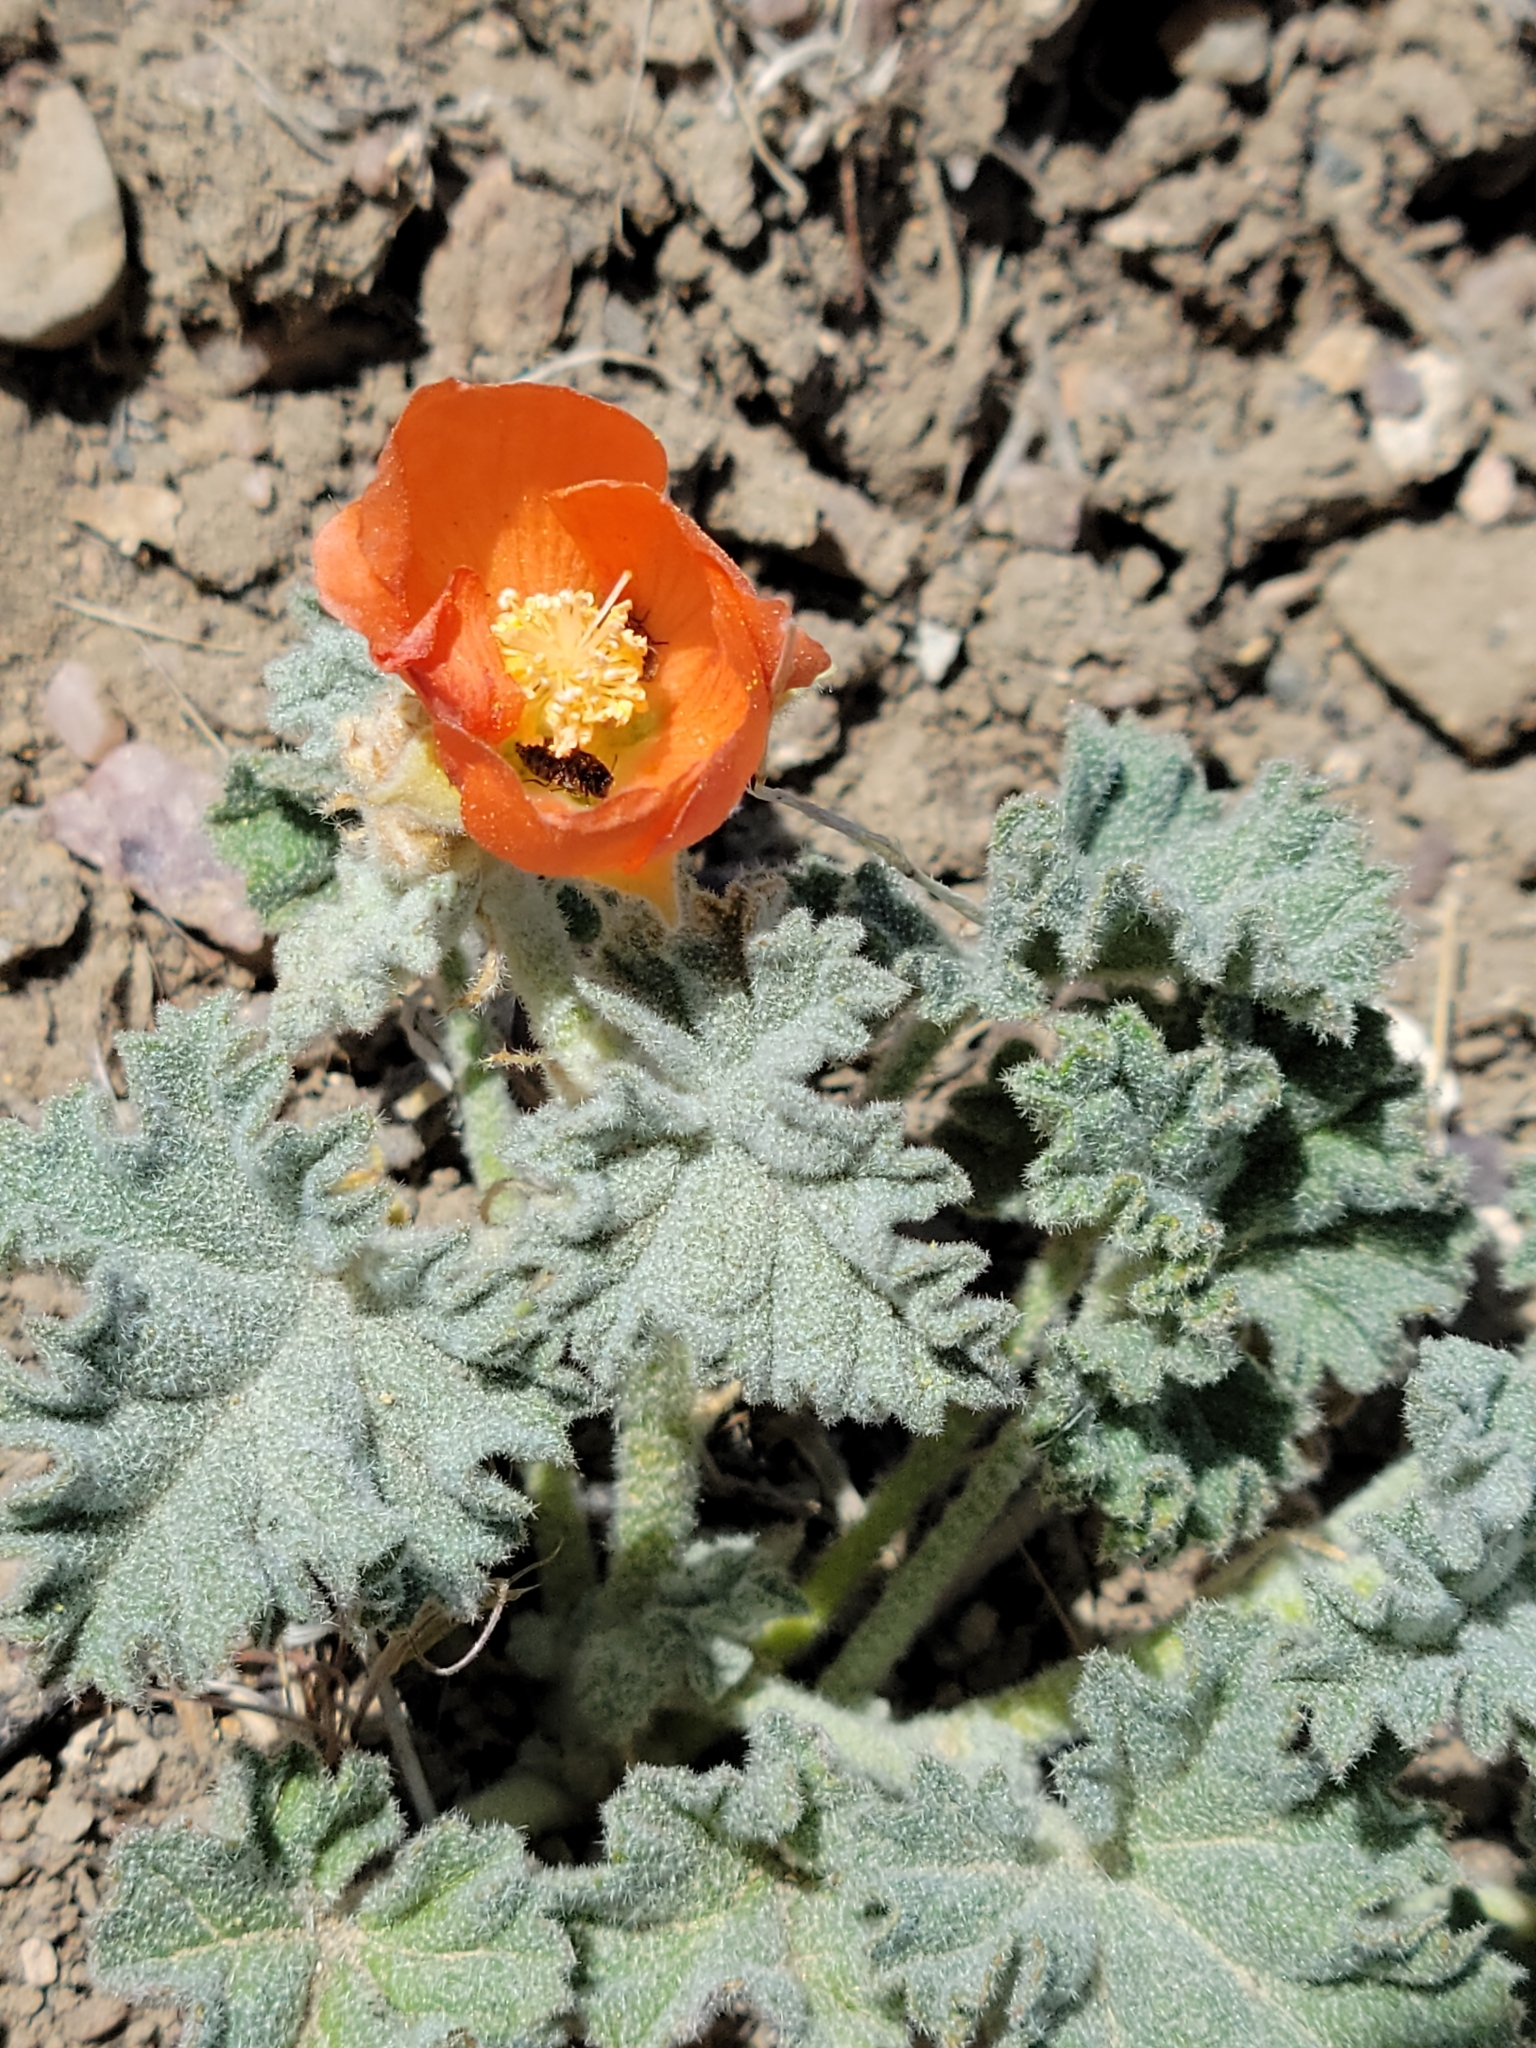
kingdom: Plantae
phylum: Tracheophyta
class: Magnoliopsida
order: Malvales
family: Malvaceae
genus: Sphaeralcea
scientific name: Sphaeralcea ambigua
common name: Apricot globe-mallow
